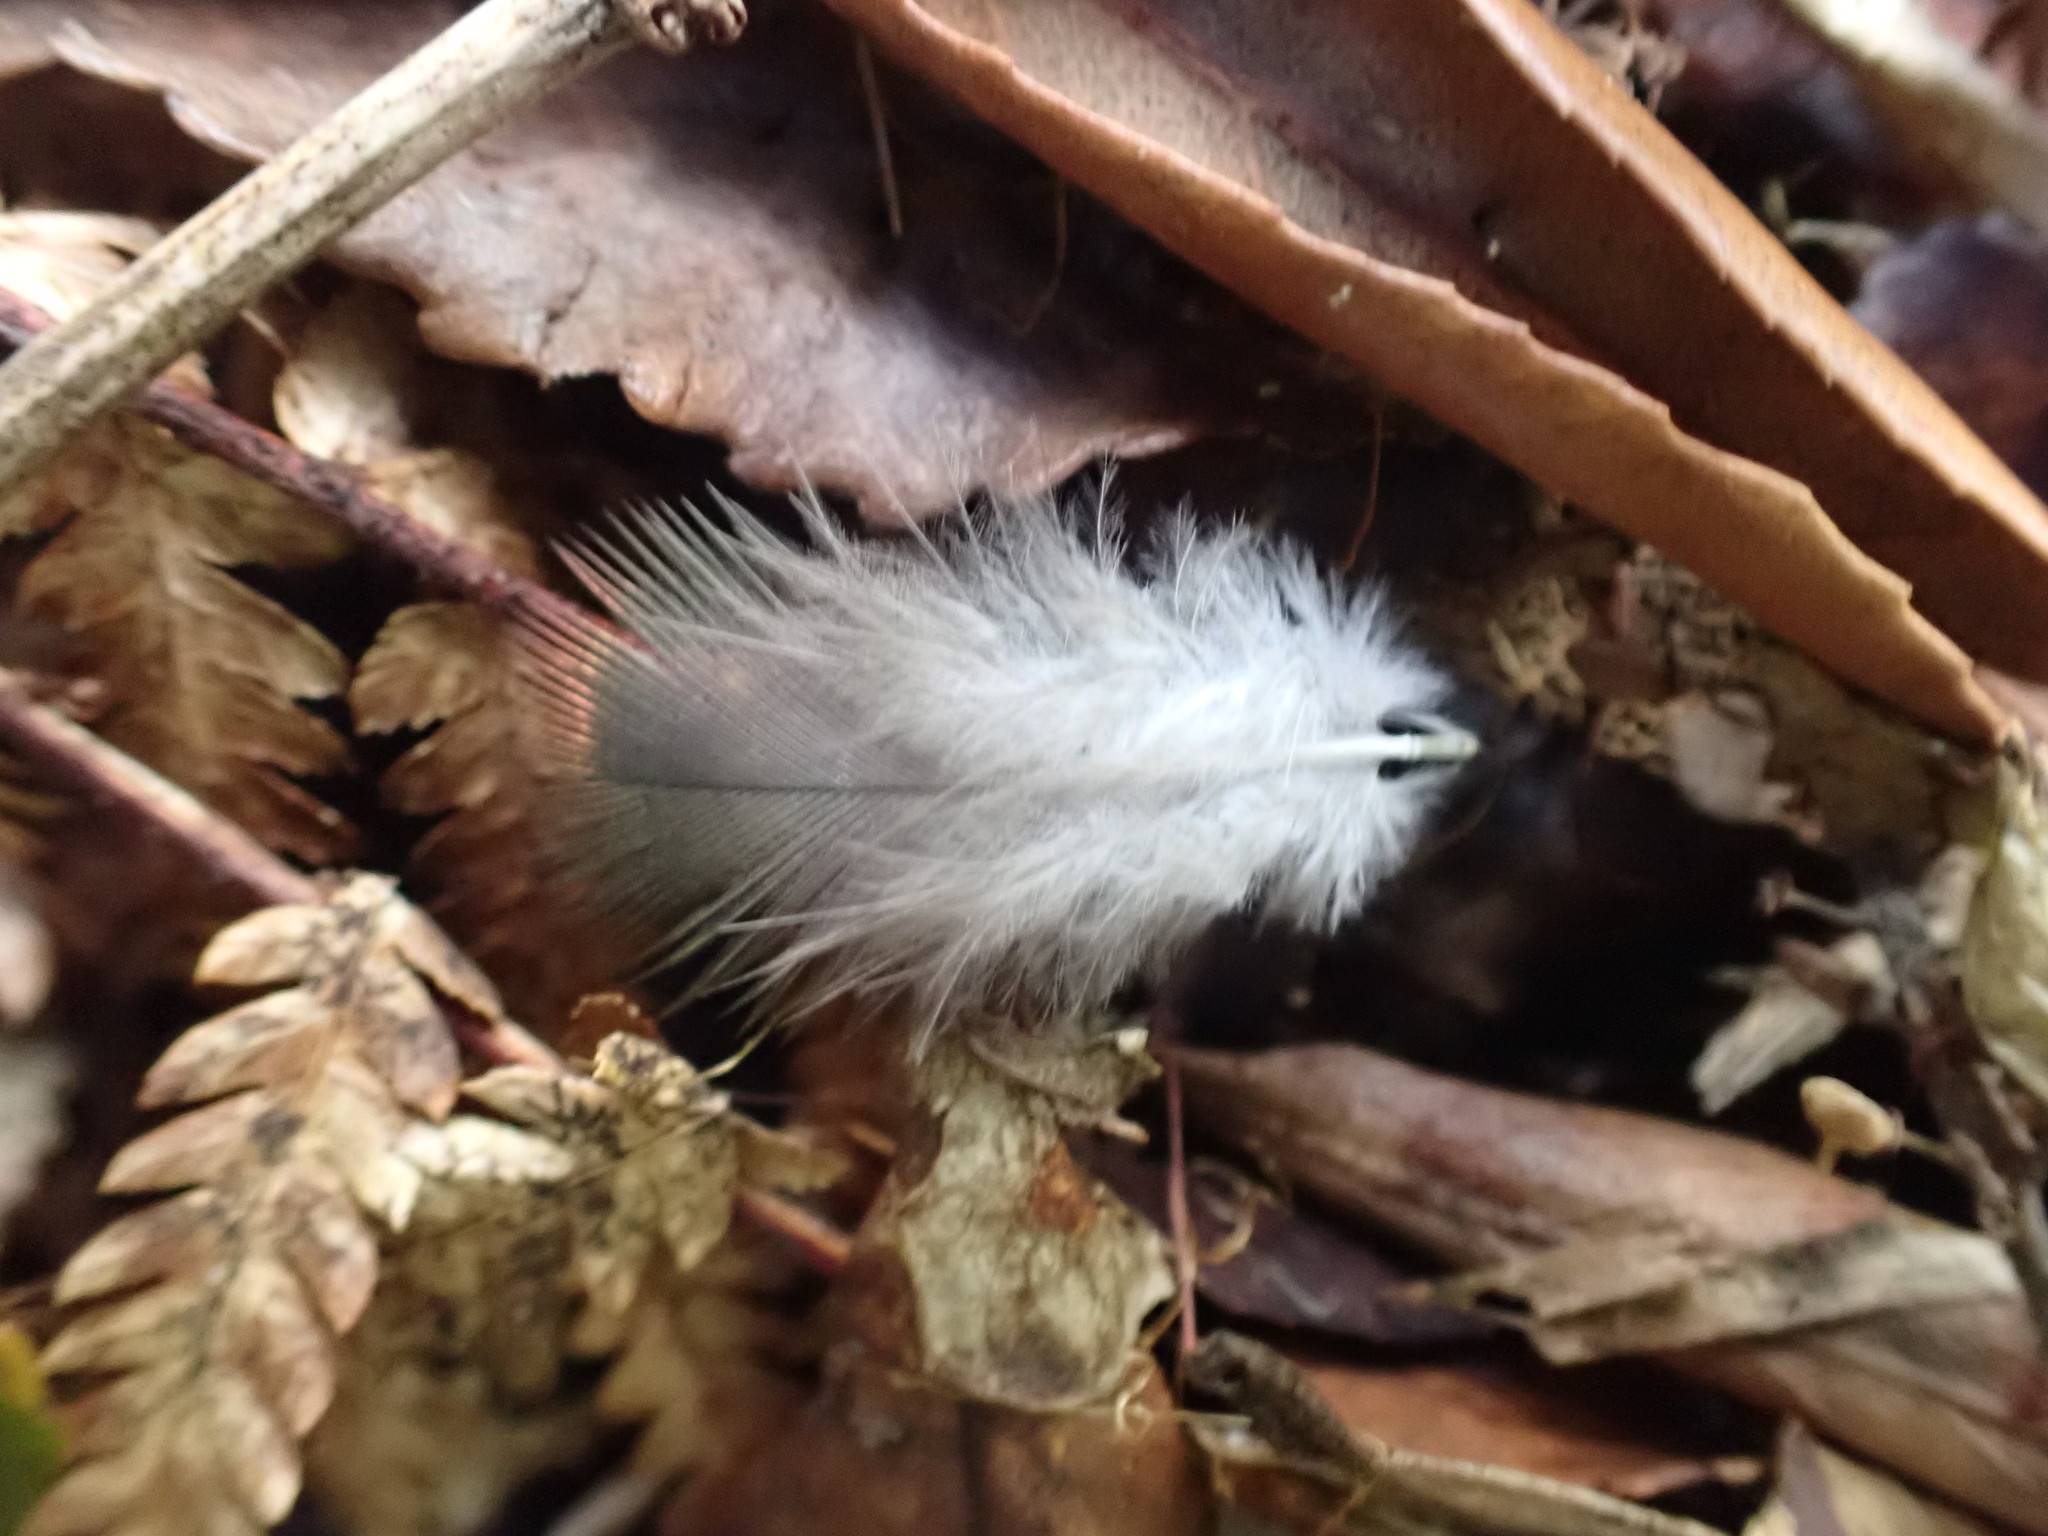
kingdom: Animalia
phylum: Chordata
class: Aves
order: Columbiformes
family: Columbidae
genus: Hemiphaga
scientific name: Hemiphaga novaeseelandiae
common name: New zealand pigeon
